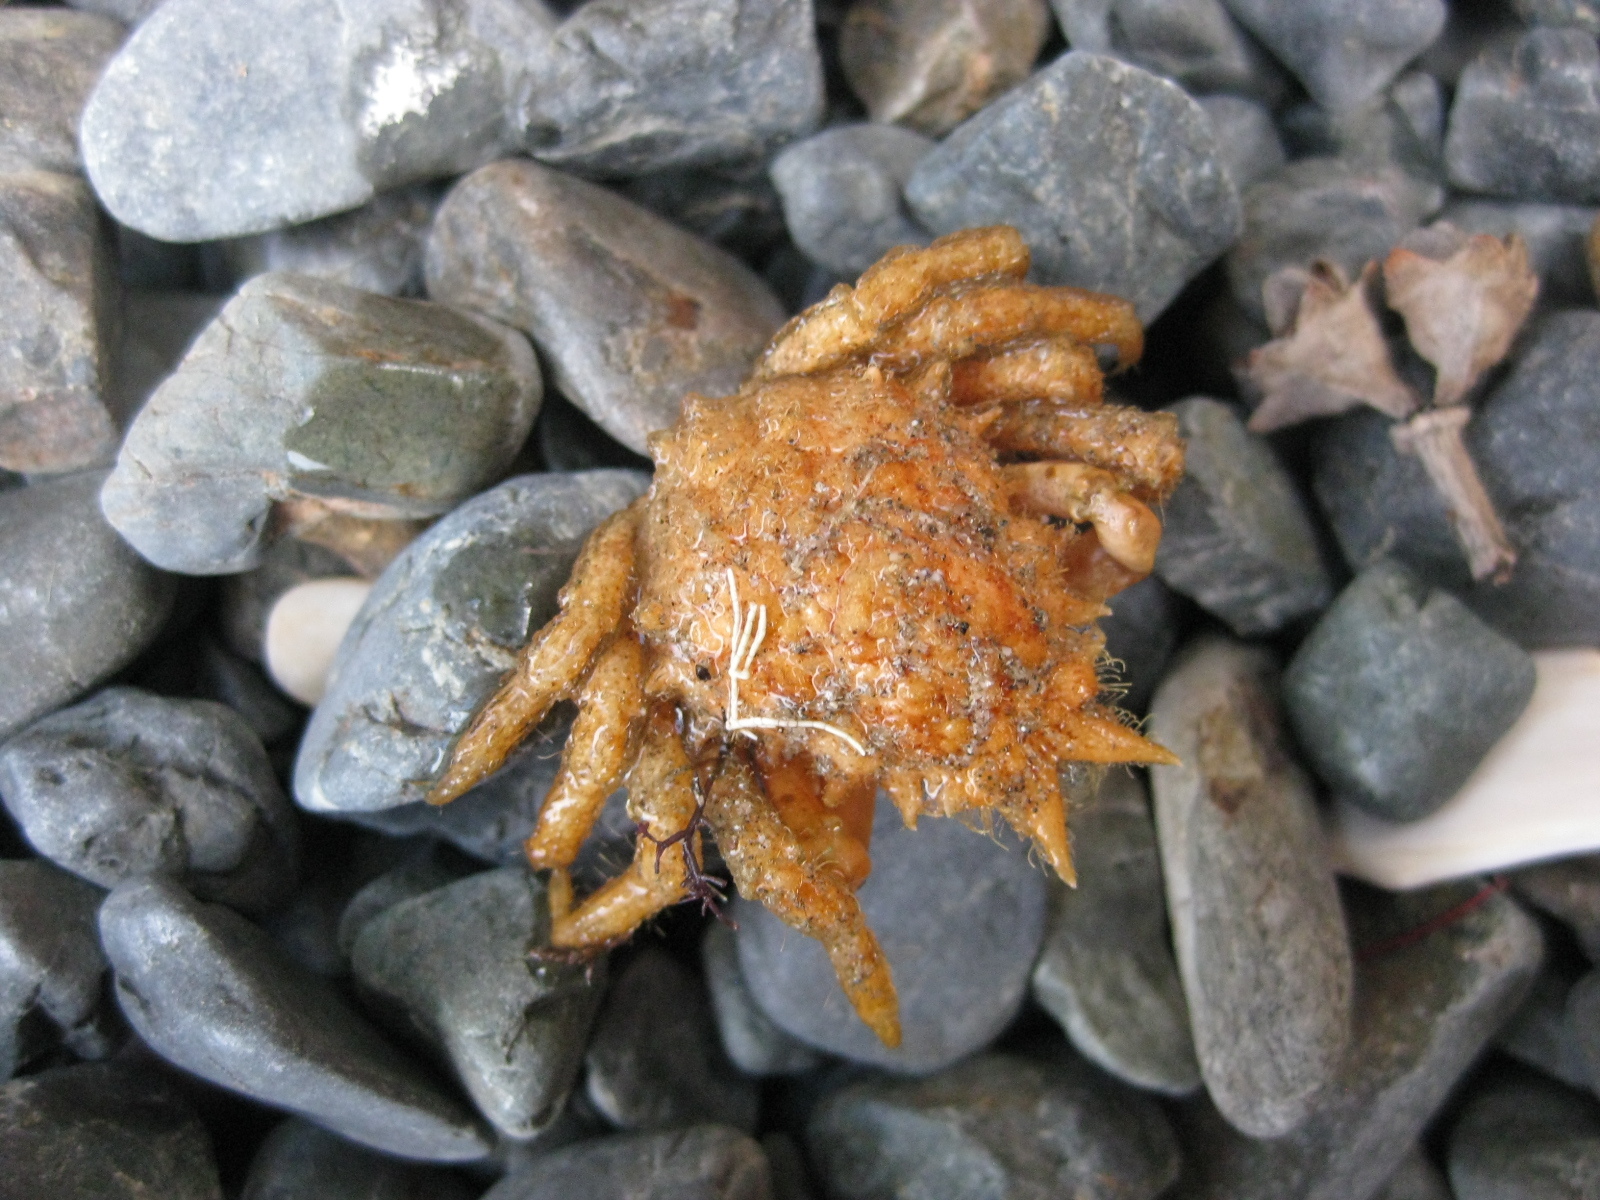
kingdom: Animalia
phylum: Arthropoda
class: Malacostraca
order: Decapoda
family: Majidae
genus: Notomithrax
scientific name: Notomithrax peronii
